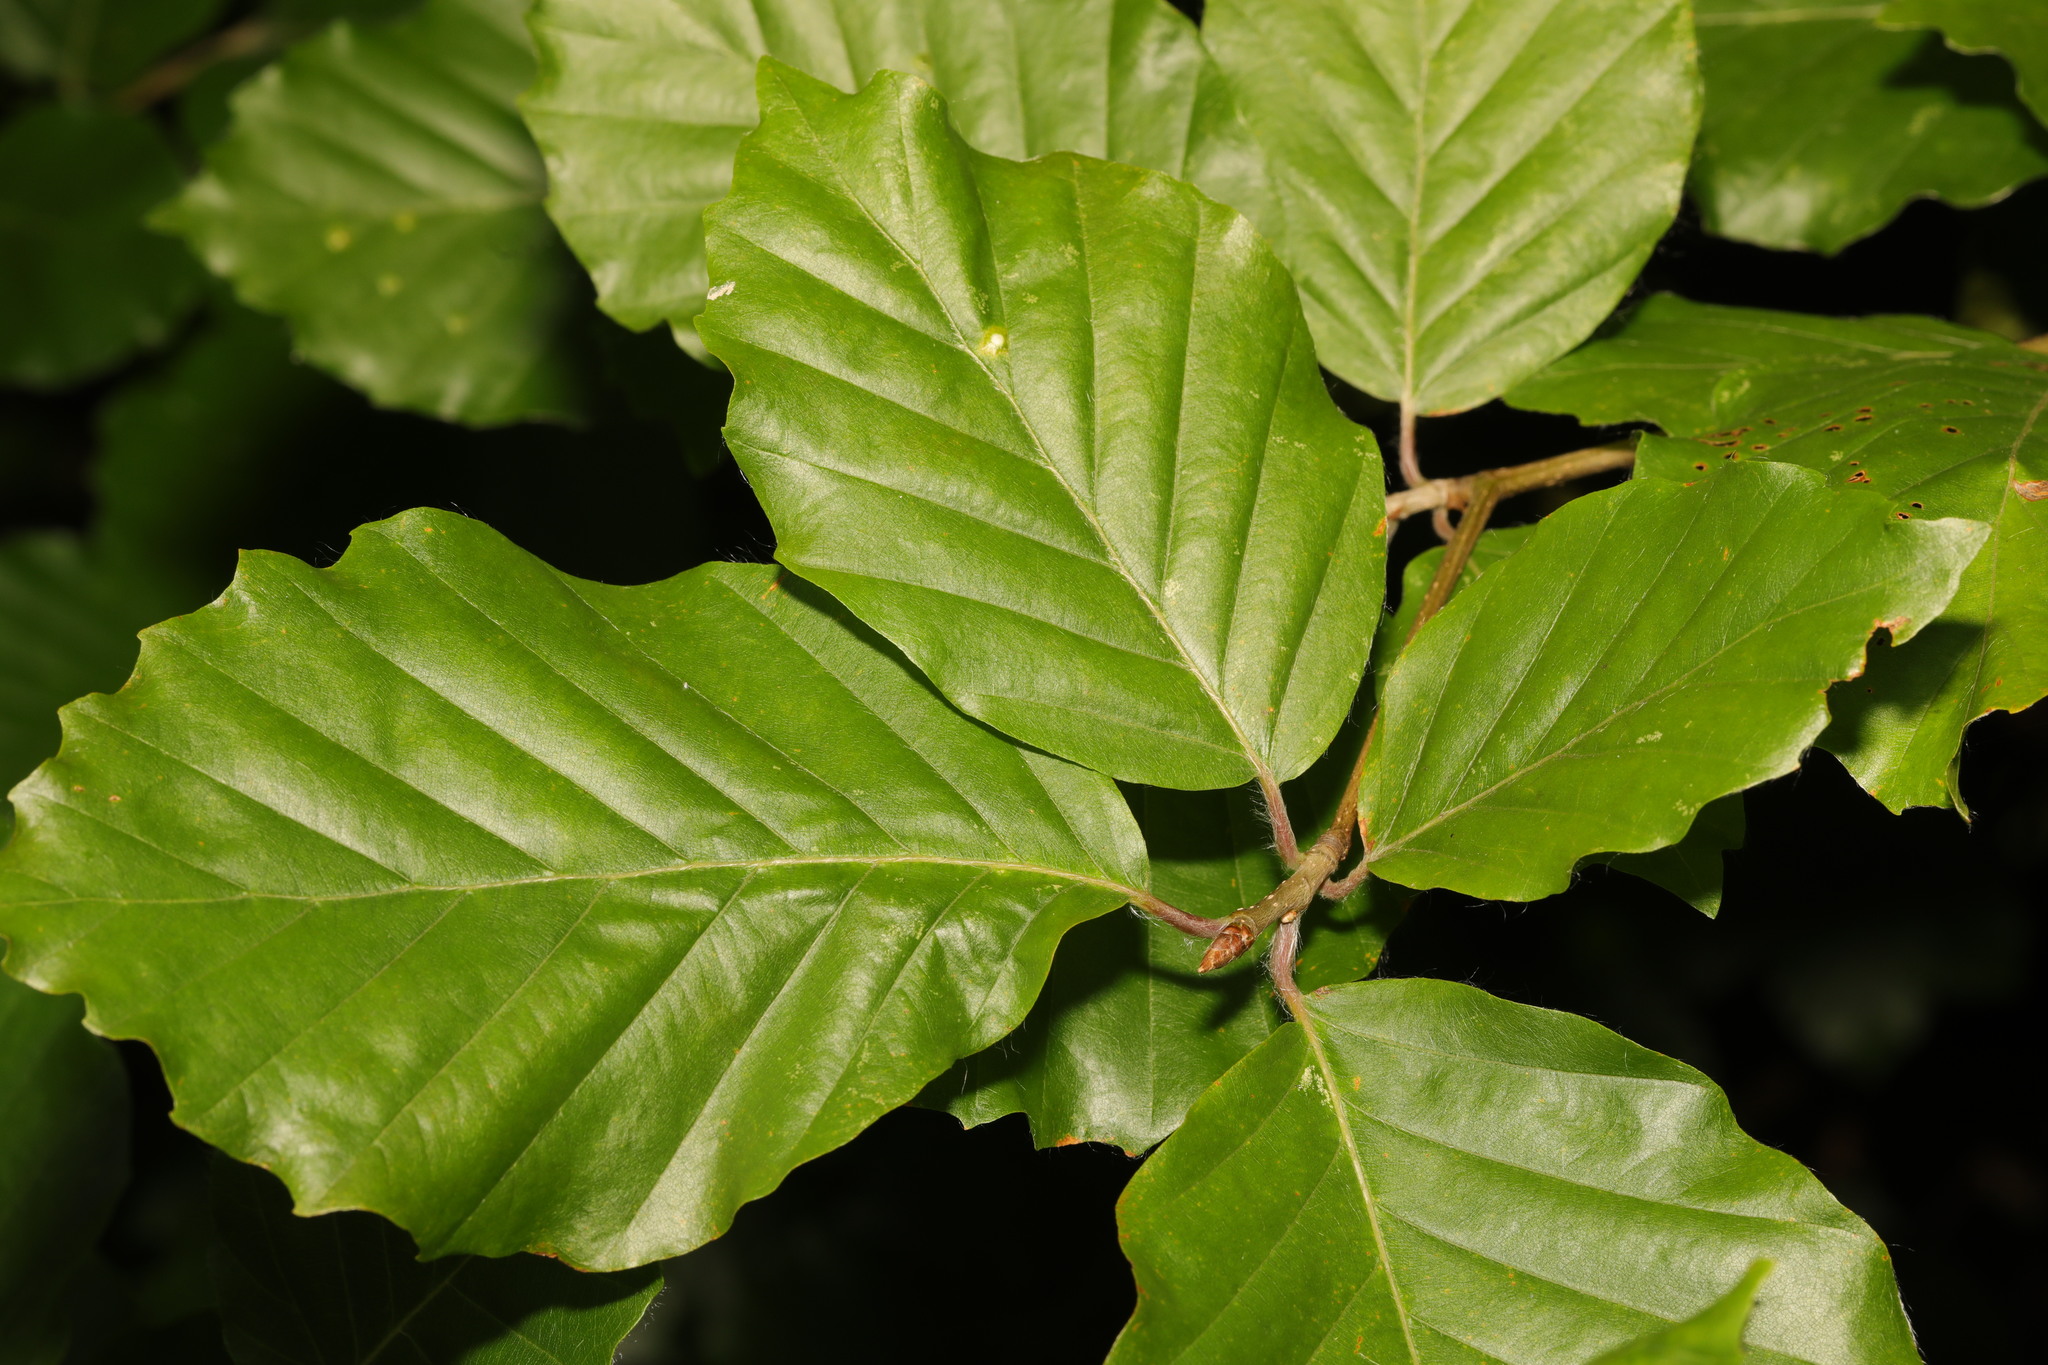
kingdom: Plantae
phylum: Tracheophyta
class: Magnoliopsida
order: Fagales
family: Fagaceae
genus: Fagus
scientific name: Fagus sylvatica
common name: Beech
